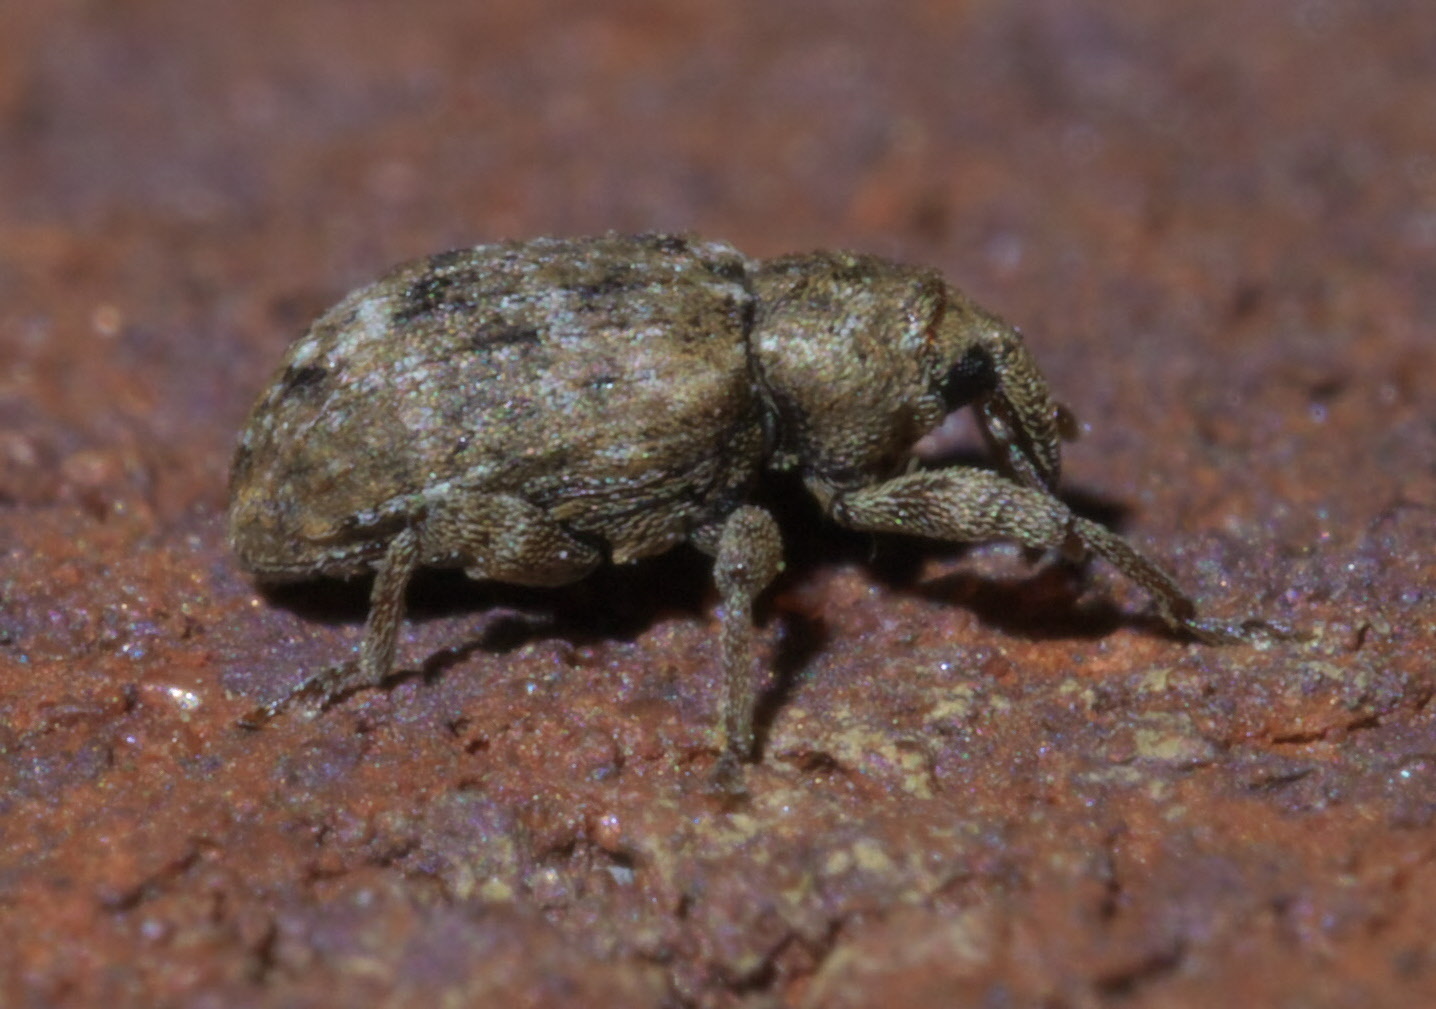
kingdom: Animalia
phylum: Arthropoda
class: Insecta
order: Coleoptera
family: Curculionidae
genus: Conotrachelus
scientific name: Conotrachelus recessus
